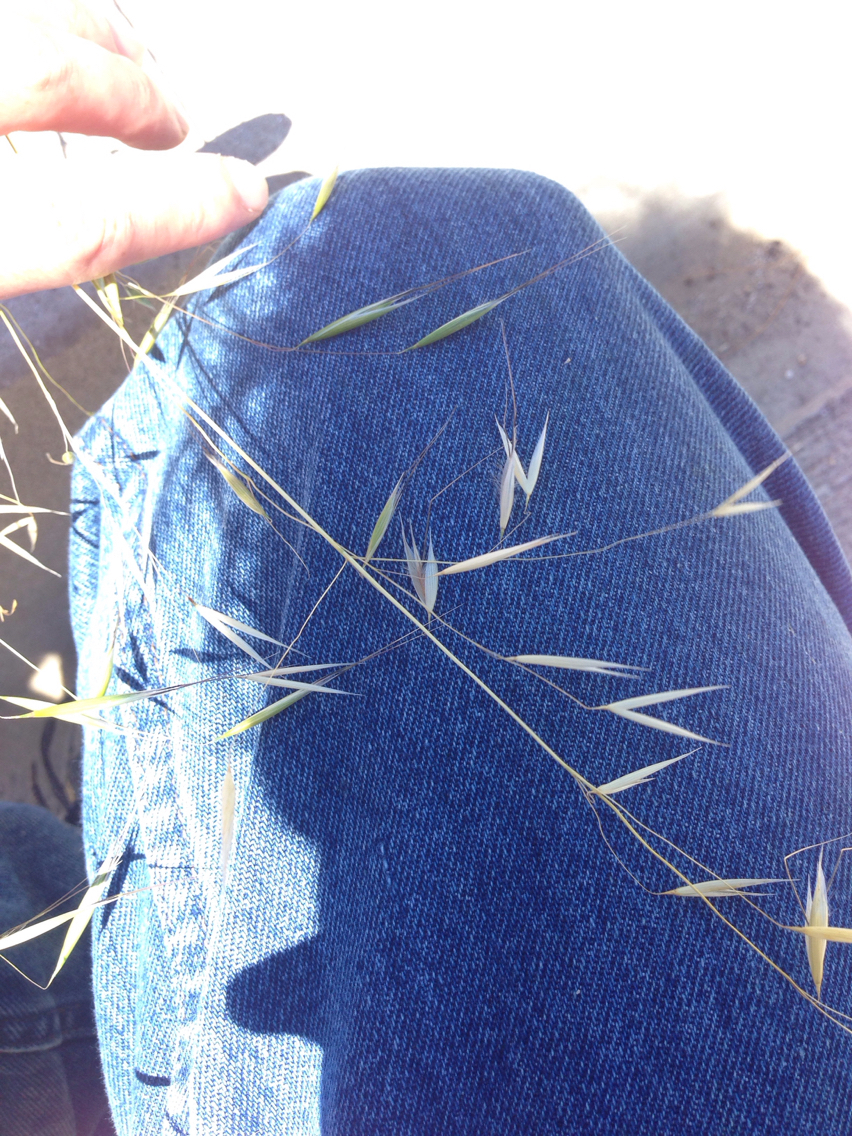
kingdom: Plantae
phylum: Tracheophyta
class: Liliopsida
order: Poales
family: Poaceae
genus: Avena
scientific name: Avena barbata
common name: Slender oat
